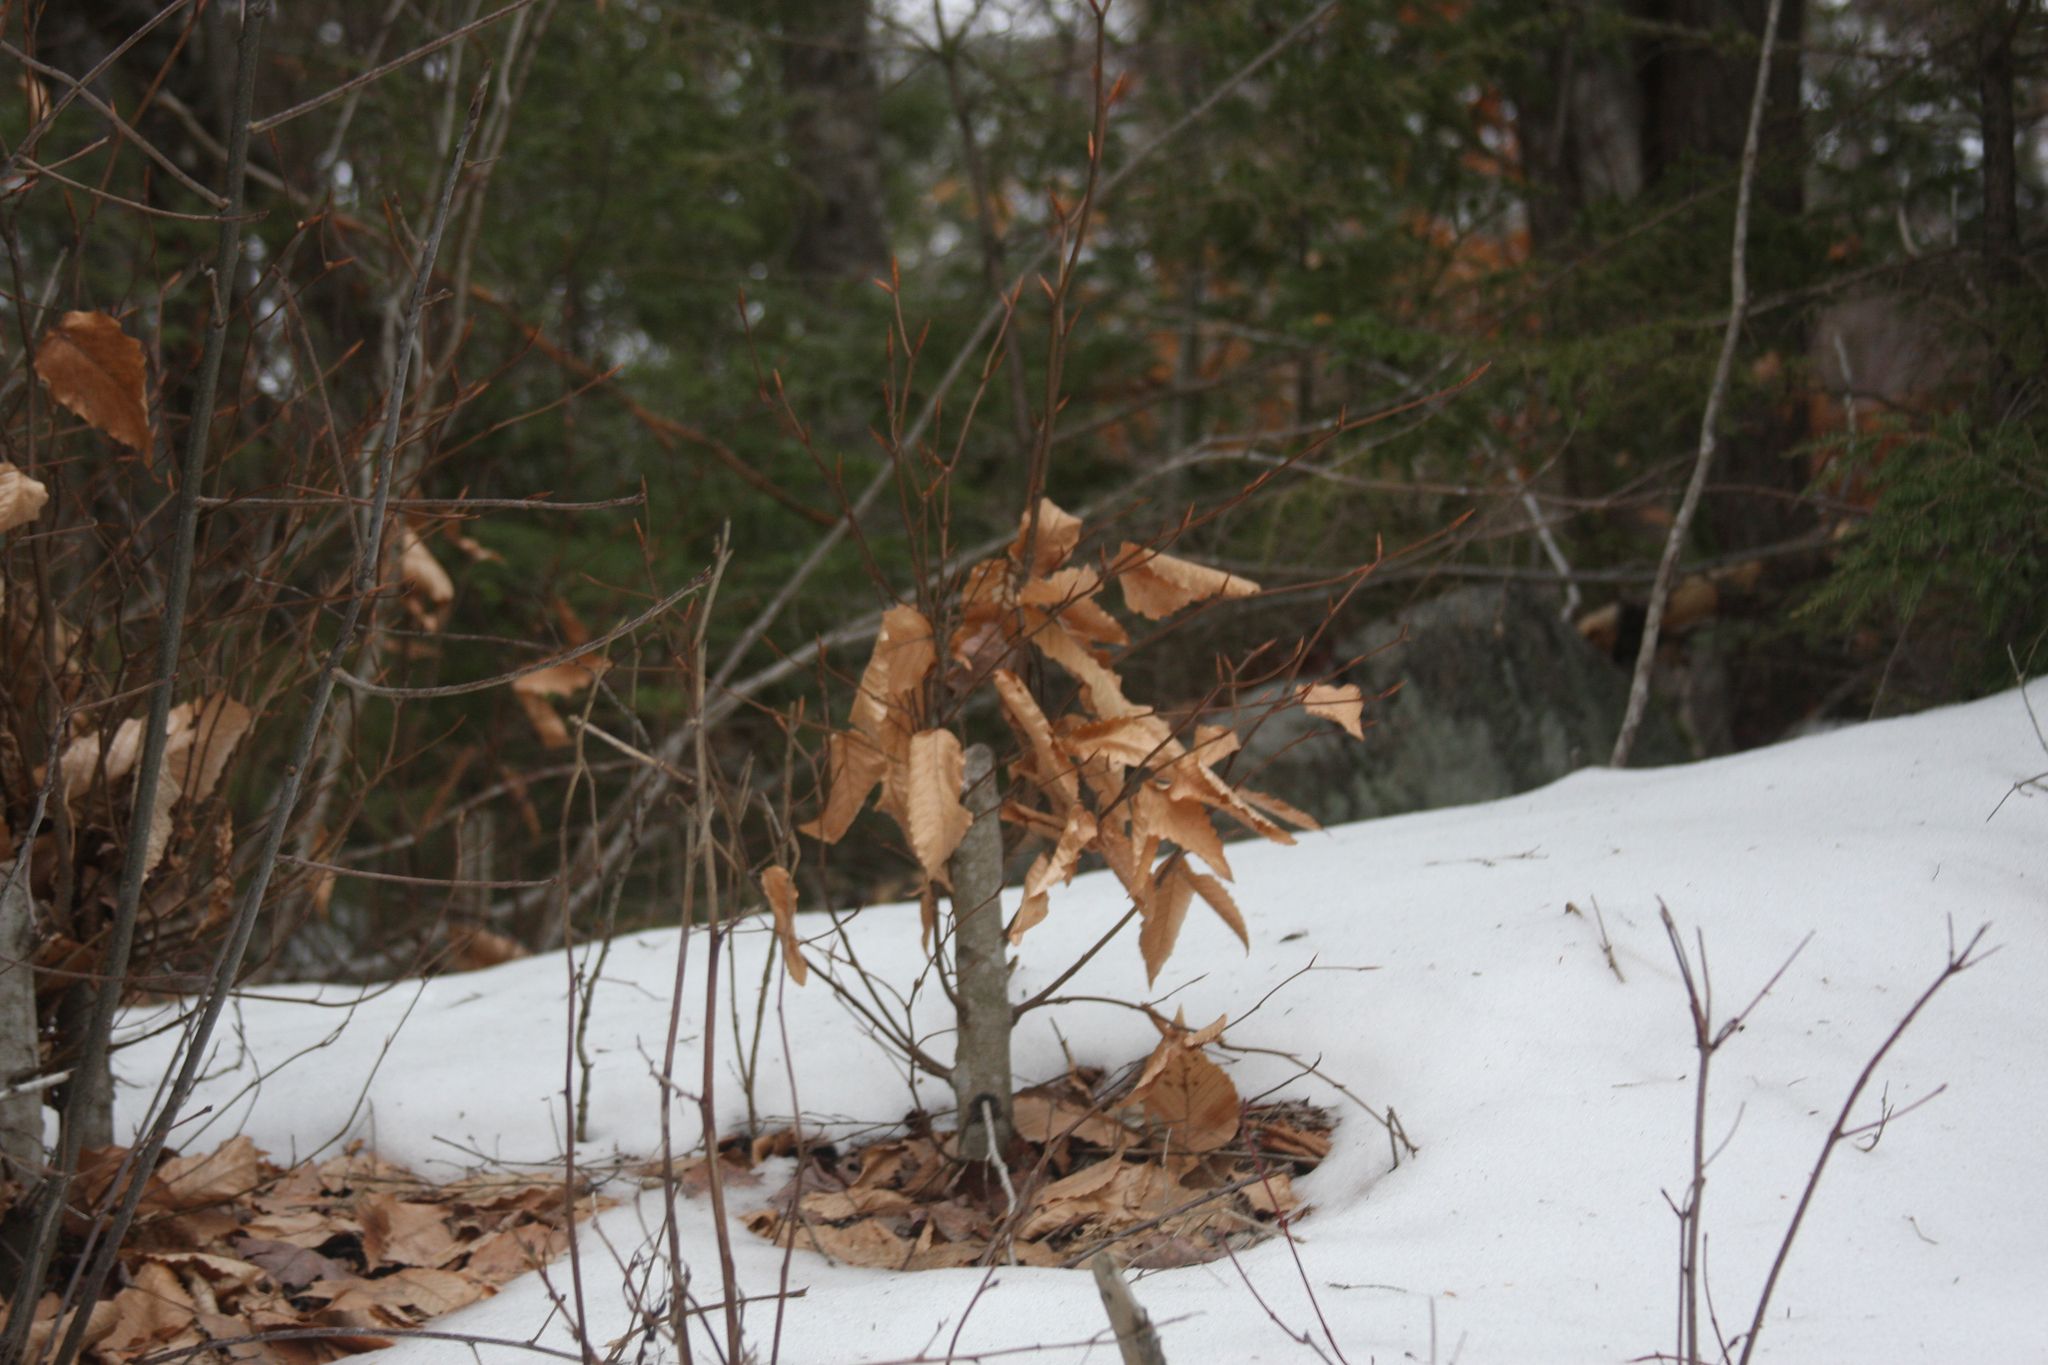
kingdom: Plantae
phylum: Tracheophyta
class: Magnoliopsida
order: Fagales
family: Fagaceae
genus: Fagus
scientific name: Fagus grandifolia
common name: American beech
